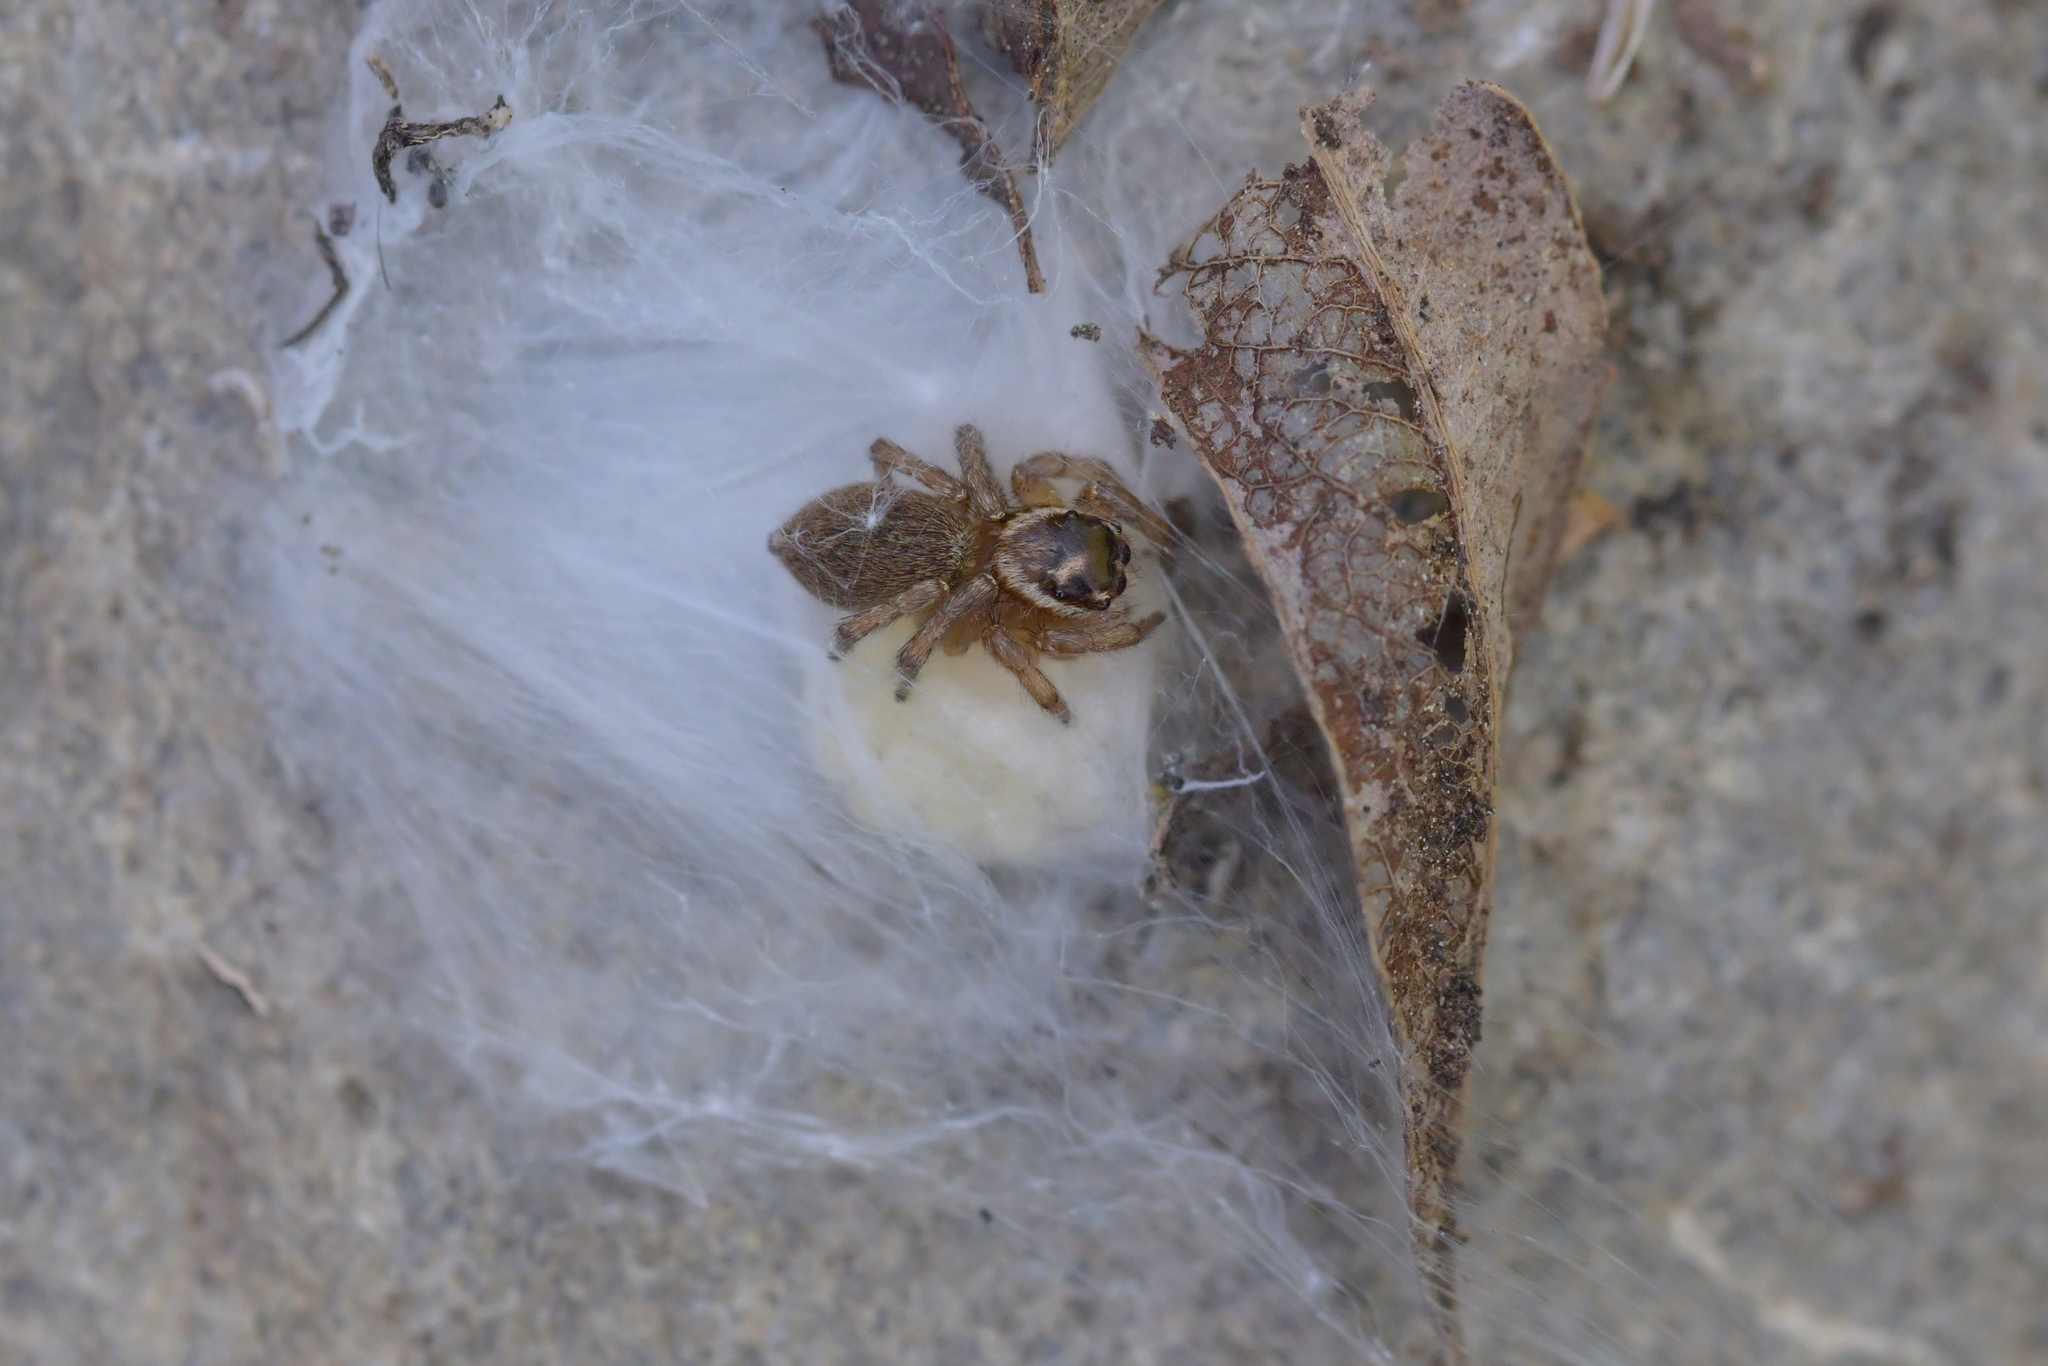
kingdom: Animalia
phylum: Arthropoda
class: Arachnida
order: Araneae
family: Salticidae
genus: Maratus
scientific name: Maratus griseus
